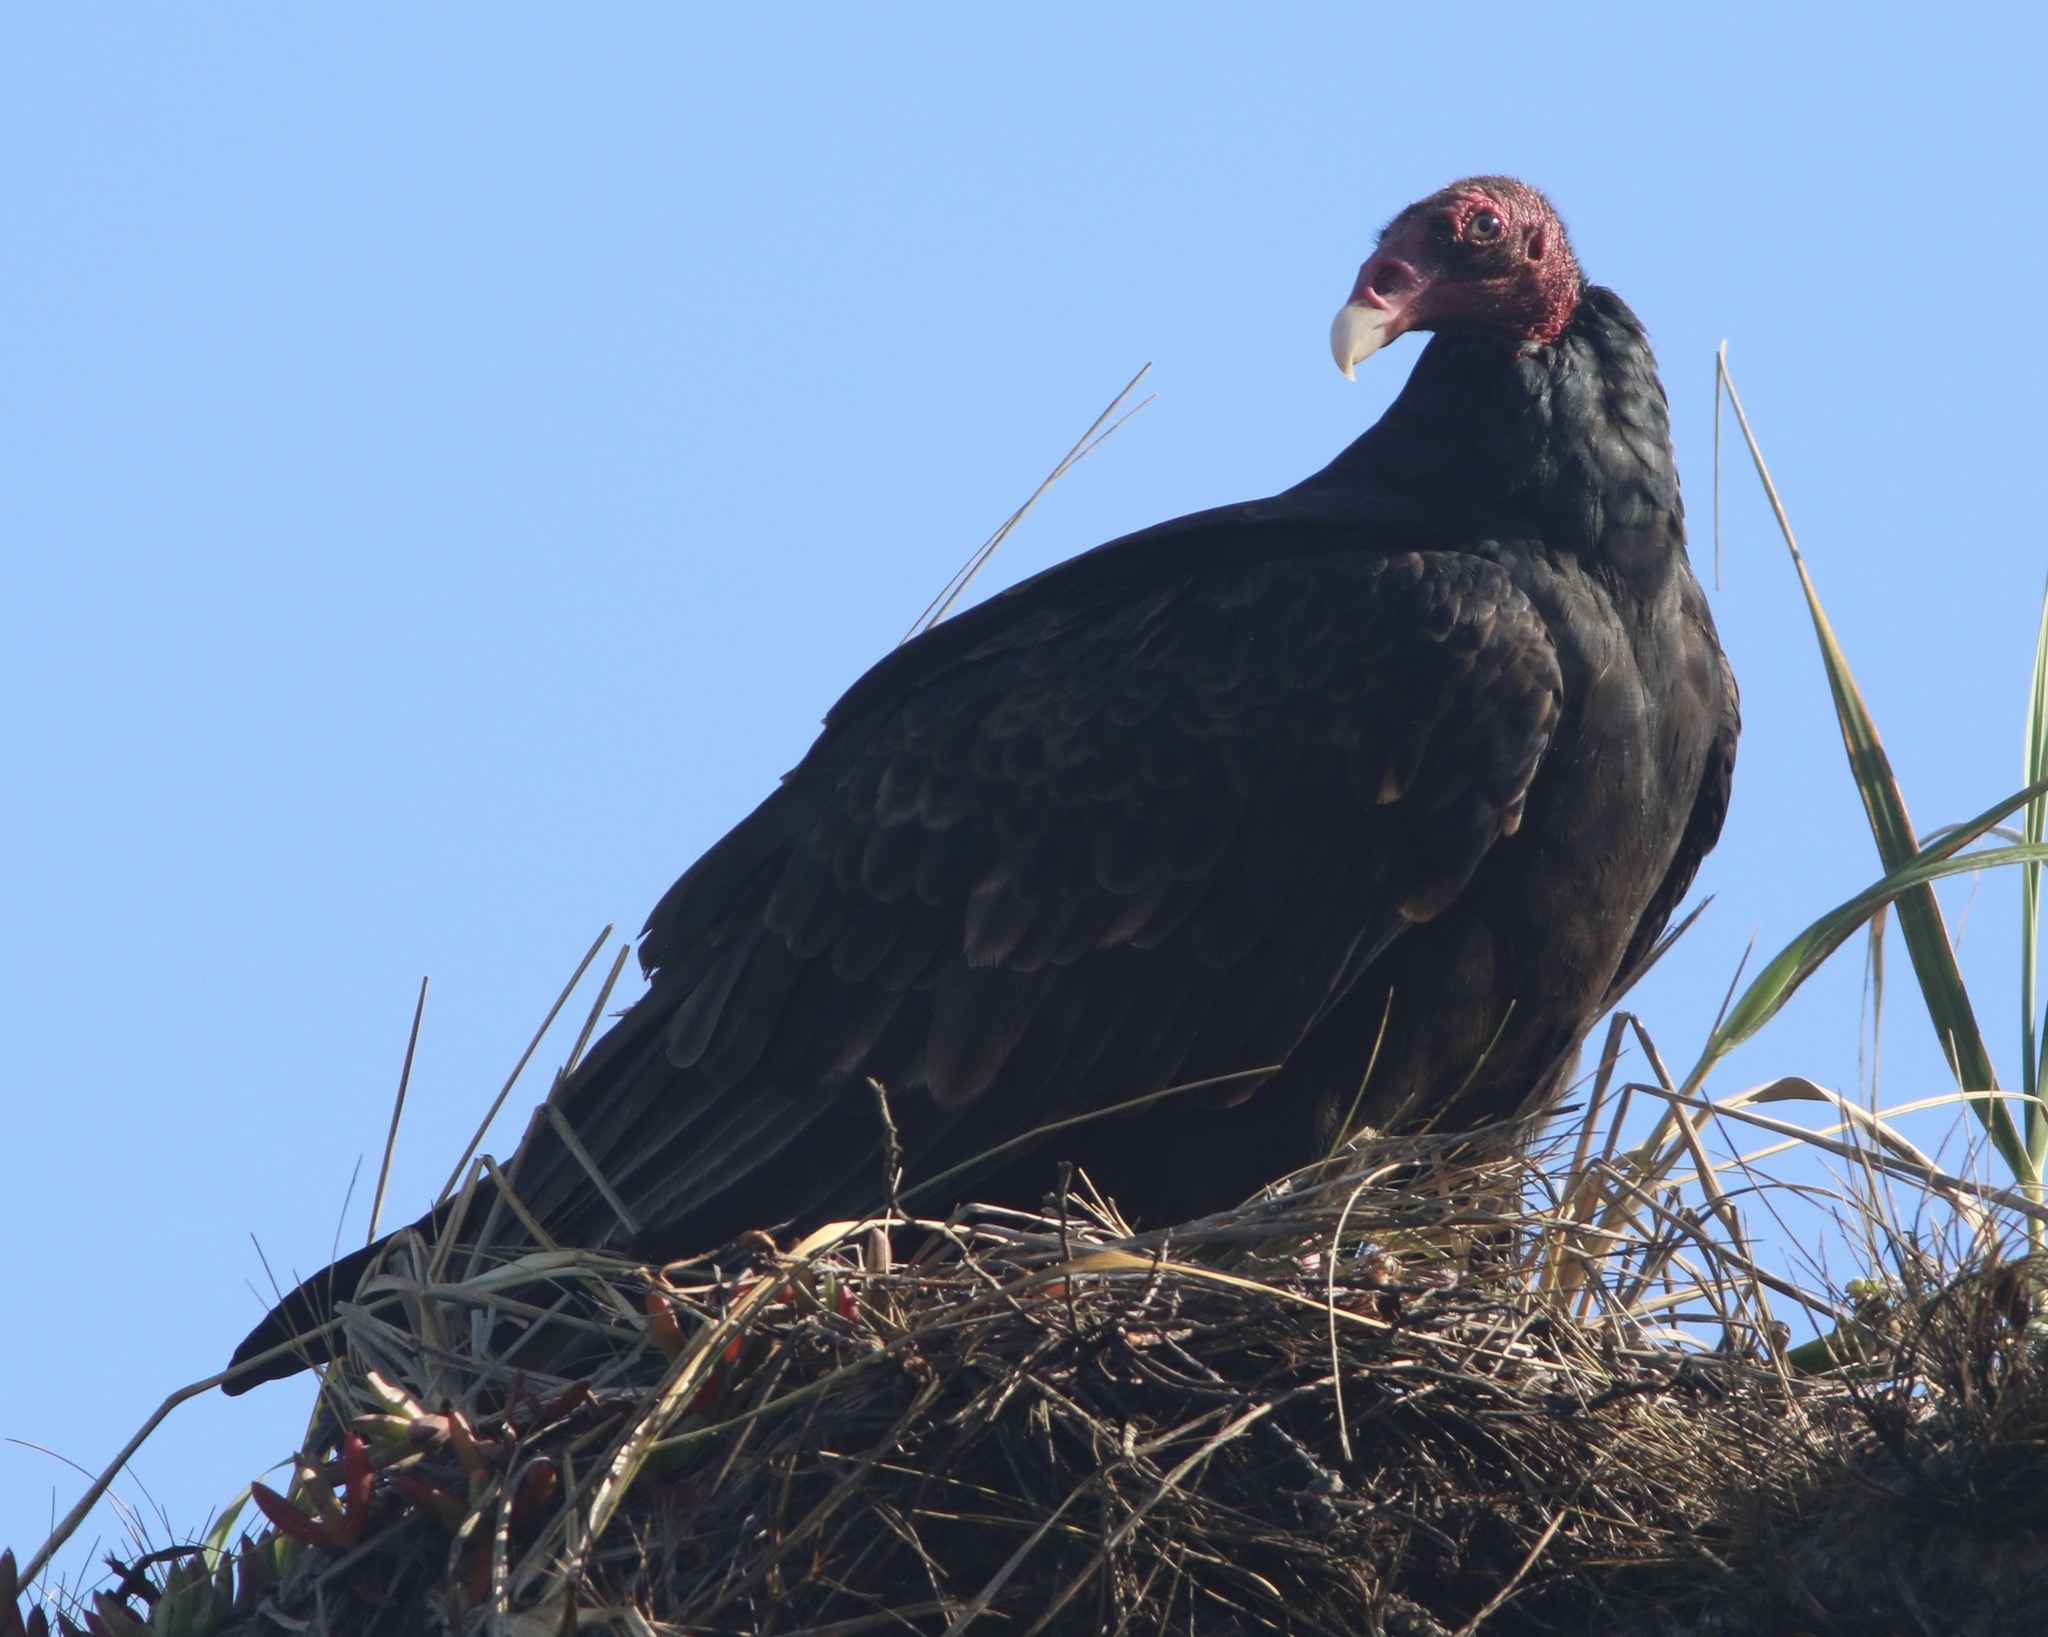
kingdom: Animalia
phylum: Chordata
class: Aves
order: Accipitriformes
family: Cathartidae
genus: Cathartes
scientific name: Cathartes aura
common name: Turkey vulture
